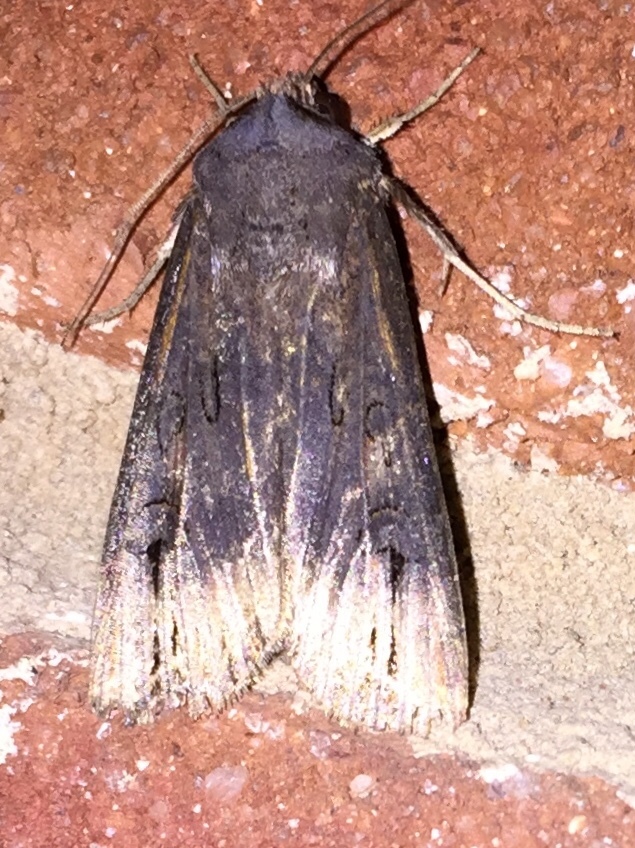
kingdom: Animalia
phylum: Arthropoda
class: Insecta
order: Lepidoptera
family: Noctuidae
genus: Agrotis
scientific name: Agrotis ipsilon
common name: Dark sword-grass
